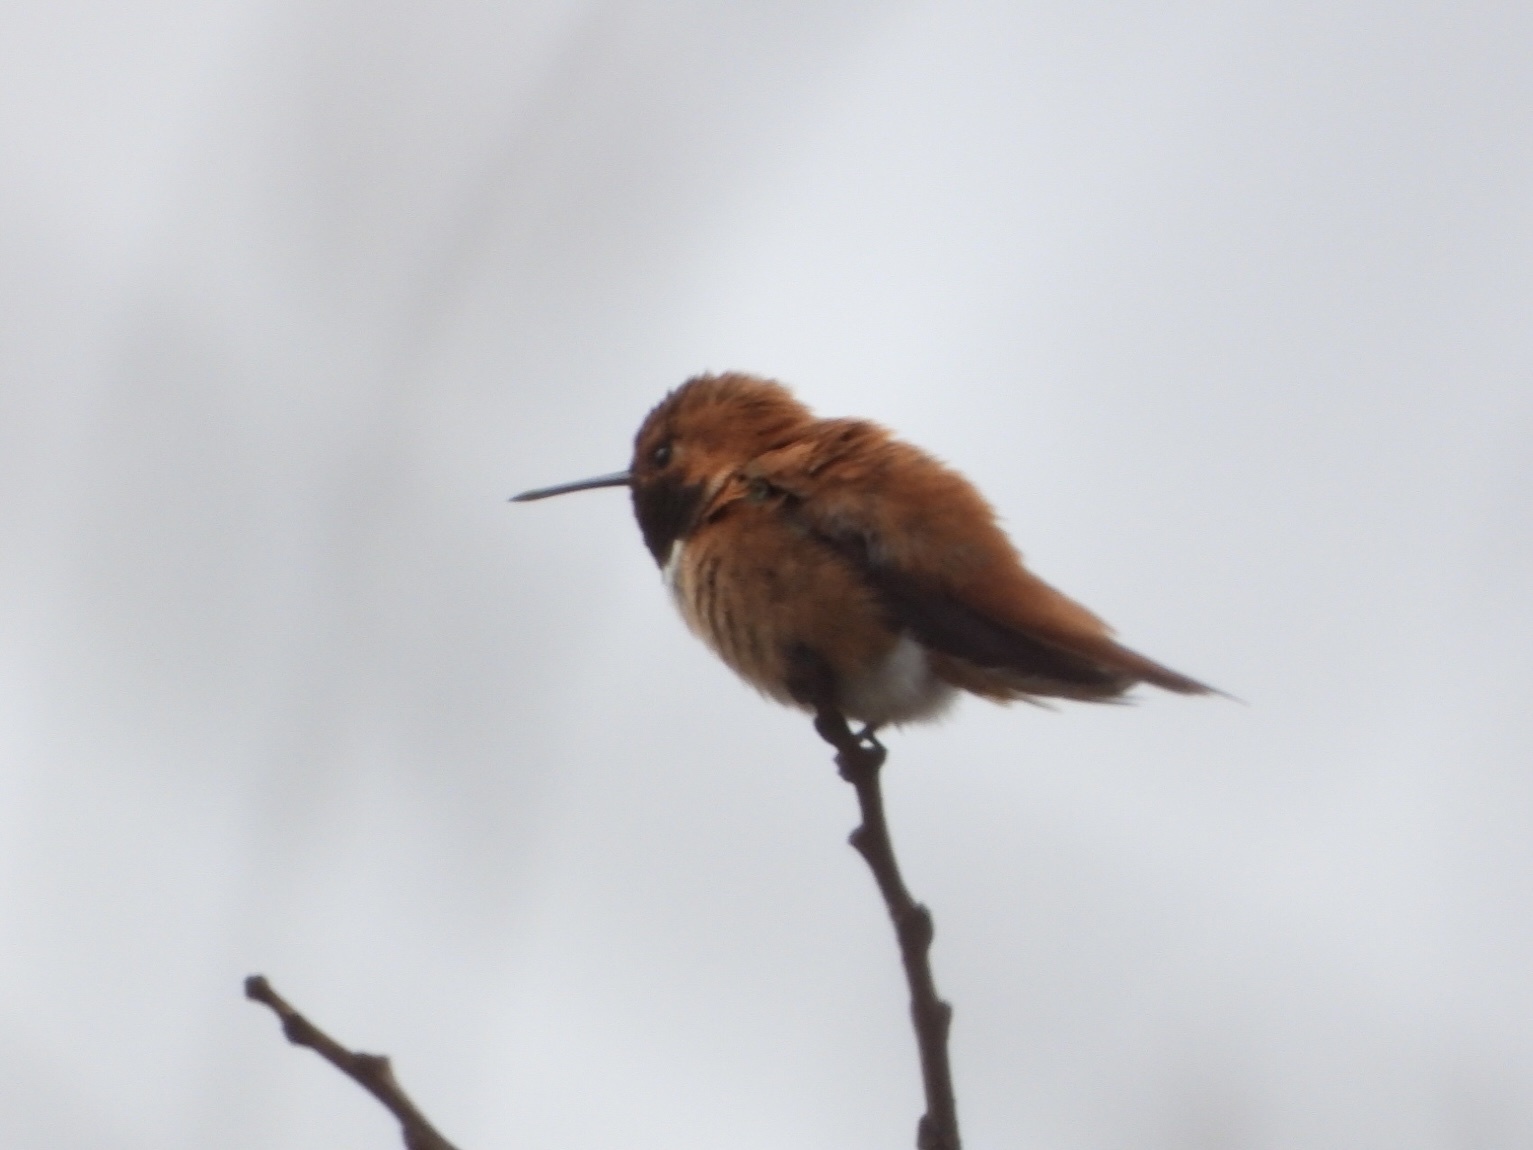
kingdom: Animalia
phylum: Chordata
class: Aves
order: Apodiformes
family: Trochilidae
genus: Selasphorus
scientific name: Selasphorus rufus
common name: Rufous hummingbird
